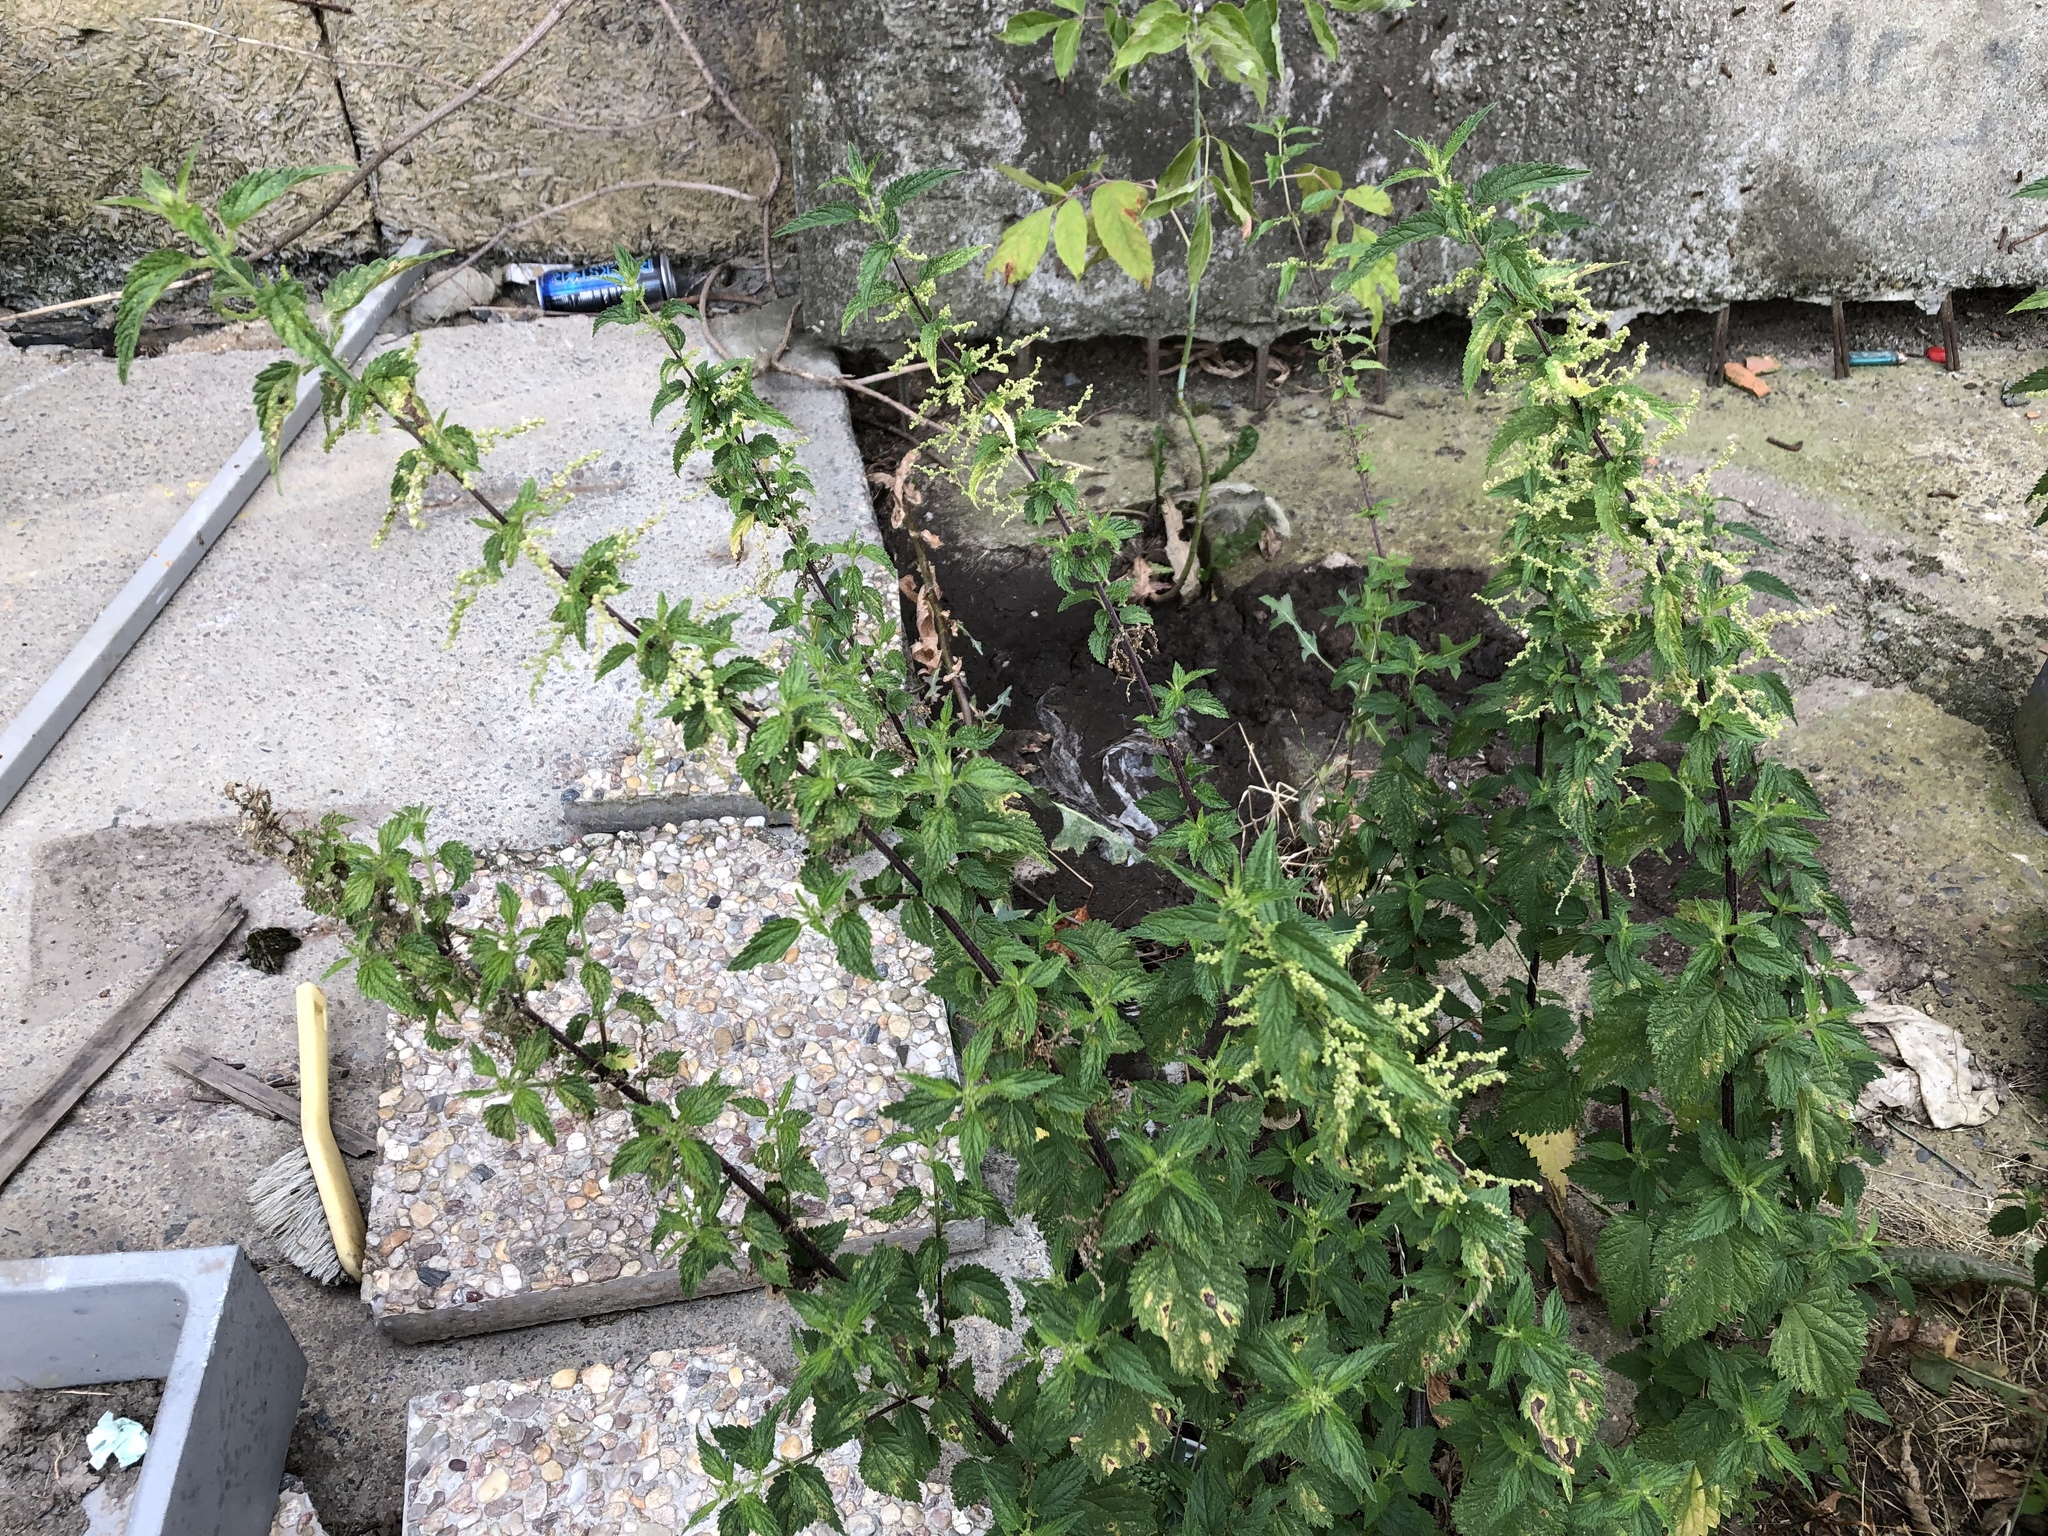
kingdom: Plantae
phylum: Tracheophyta
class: Magnoliopsida
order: Rosales
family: Urticaceae
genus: Urtica
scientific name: Urtica dioica
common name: Common nettle
